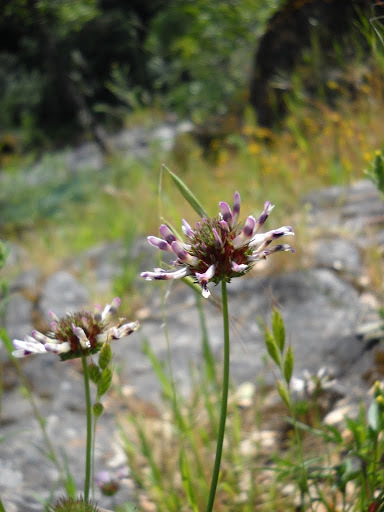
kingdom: Plantae
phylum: Tracheophyta
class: Magnoliopsida
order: Fabales
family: Fabaceae
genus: Trifolium
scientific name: Trifolium willdenovii
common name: Tomcat clover
